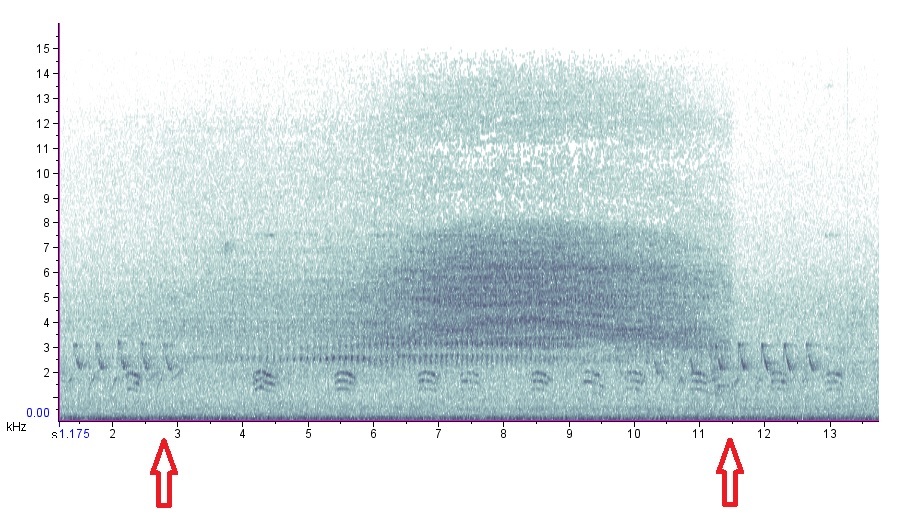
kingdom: Animalia
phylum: Arthropoda
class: Insecta
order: Hemiptera
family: Cicadidae
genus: Neotibicen
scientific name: Neotibicen tibicen
